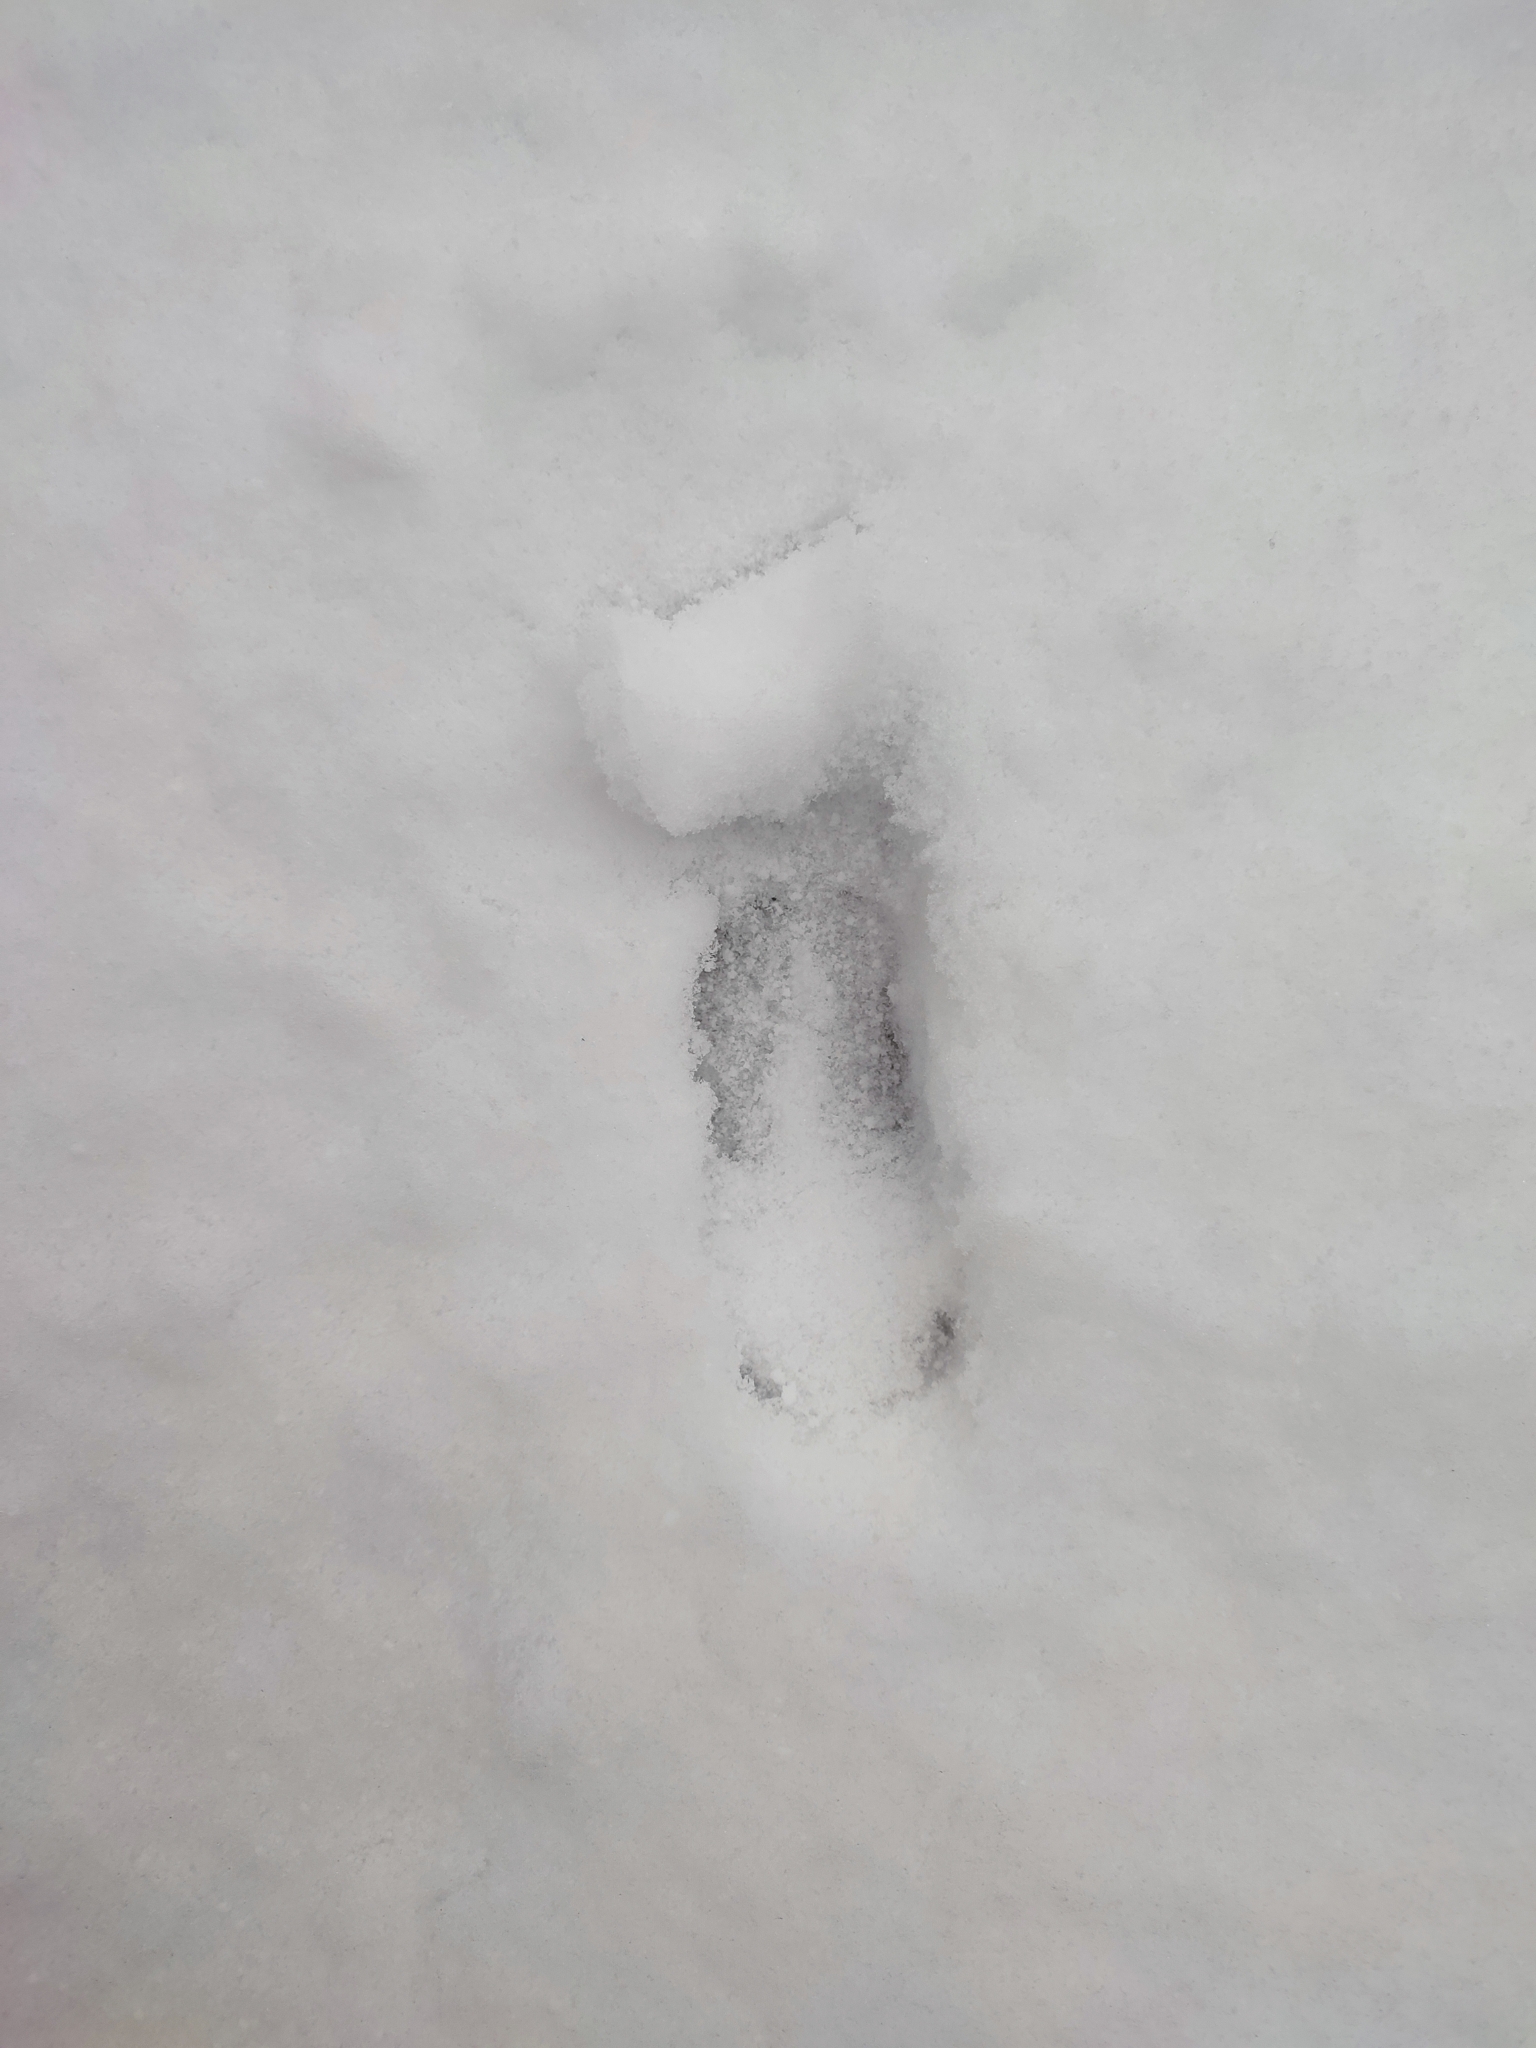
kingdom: Animalia
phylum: Chordata
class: Mammalia
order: Artiodactyla
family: Cervidae
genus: Capreolus
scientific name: Capreolus capreolus
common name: Western roe deer
